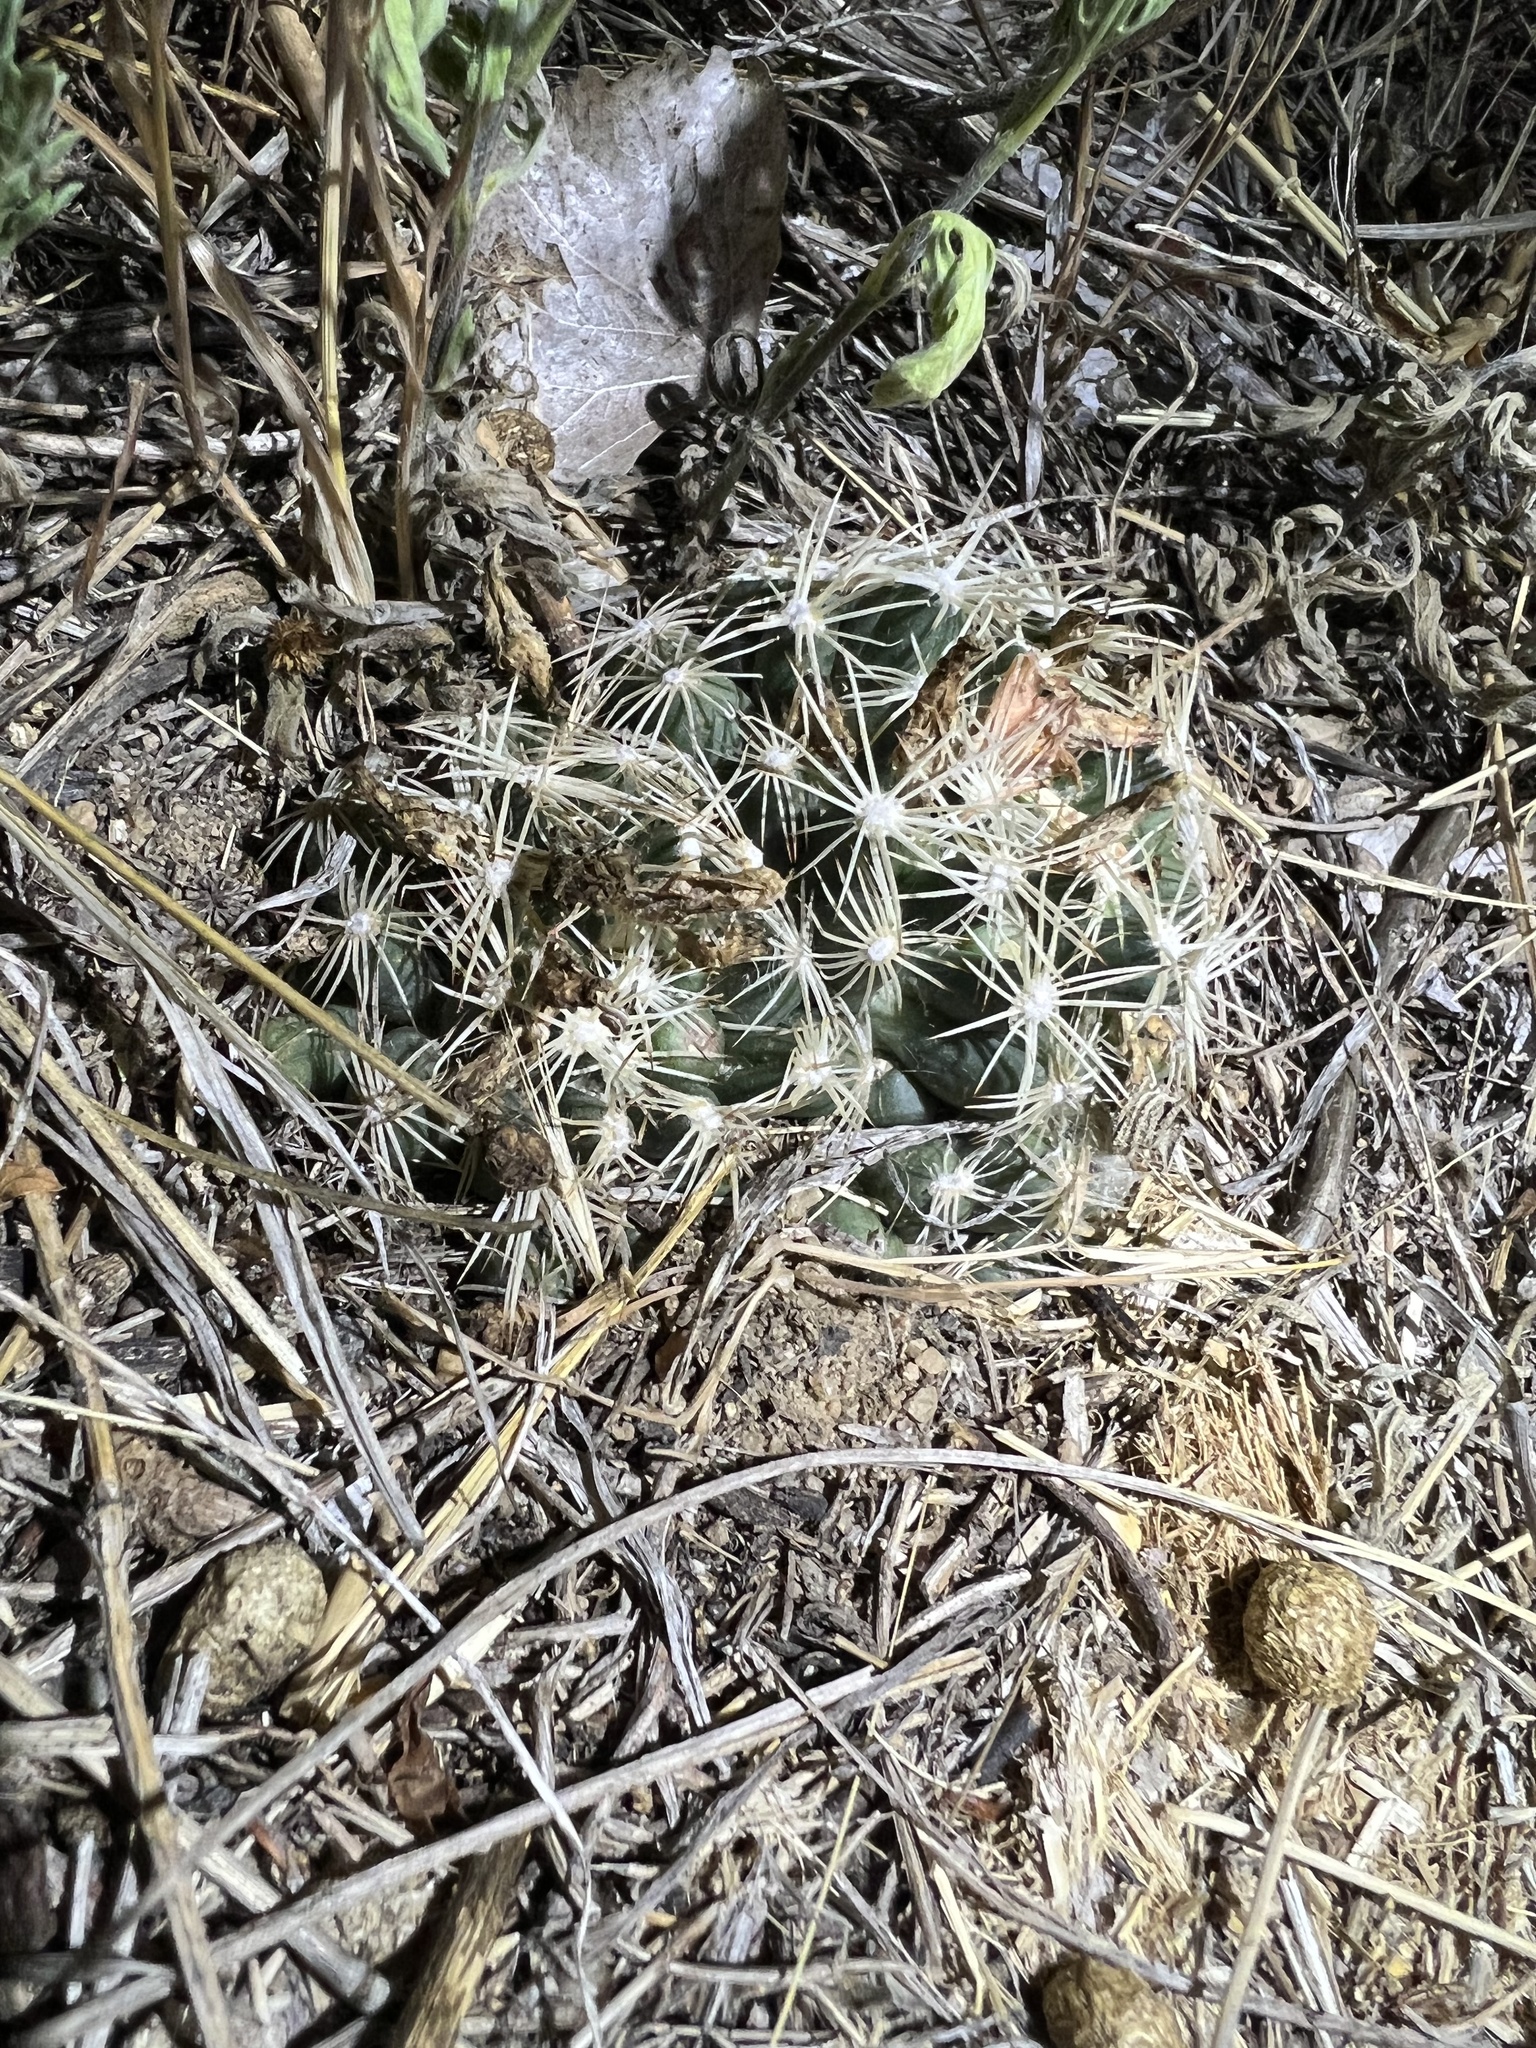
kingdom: Plantae
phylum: Tracheophyta
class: Magnoliopsida
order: Caryophyllales
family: Cactaceae
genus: Pelecyphora
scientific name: Pelecyphora missouriensis
